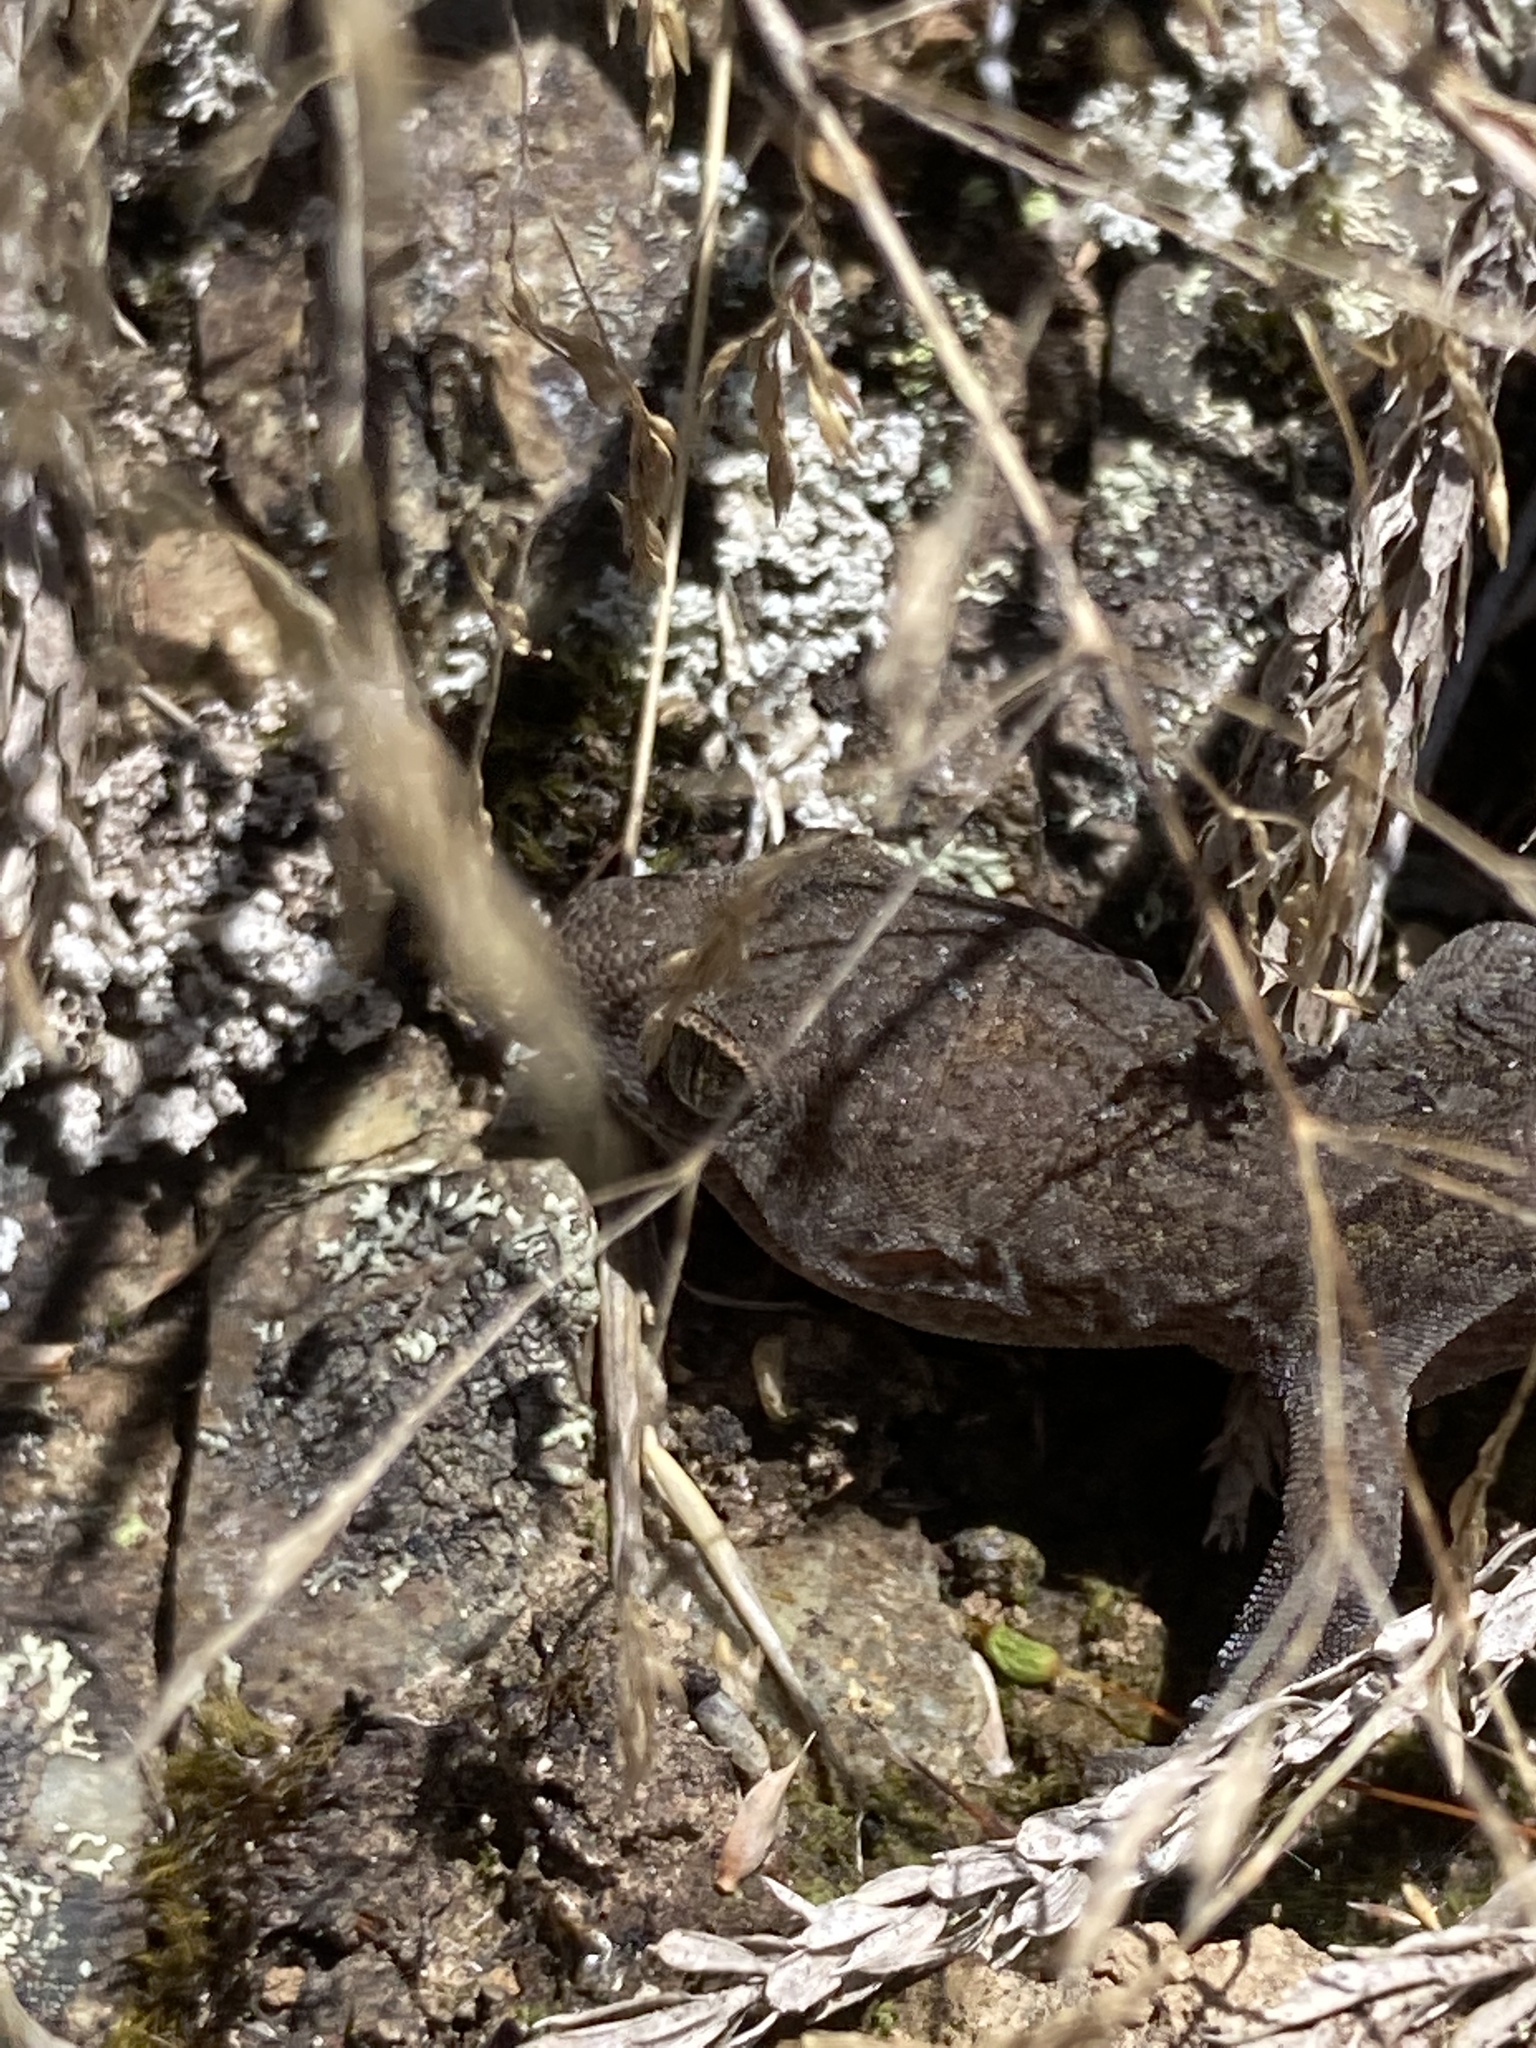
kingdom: Animalia
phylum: Chordata
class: Squamata
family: Diplodactylidae
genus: Woodworthia
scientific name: Woodworthia
